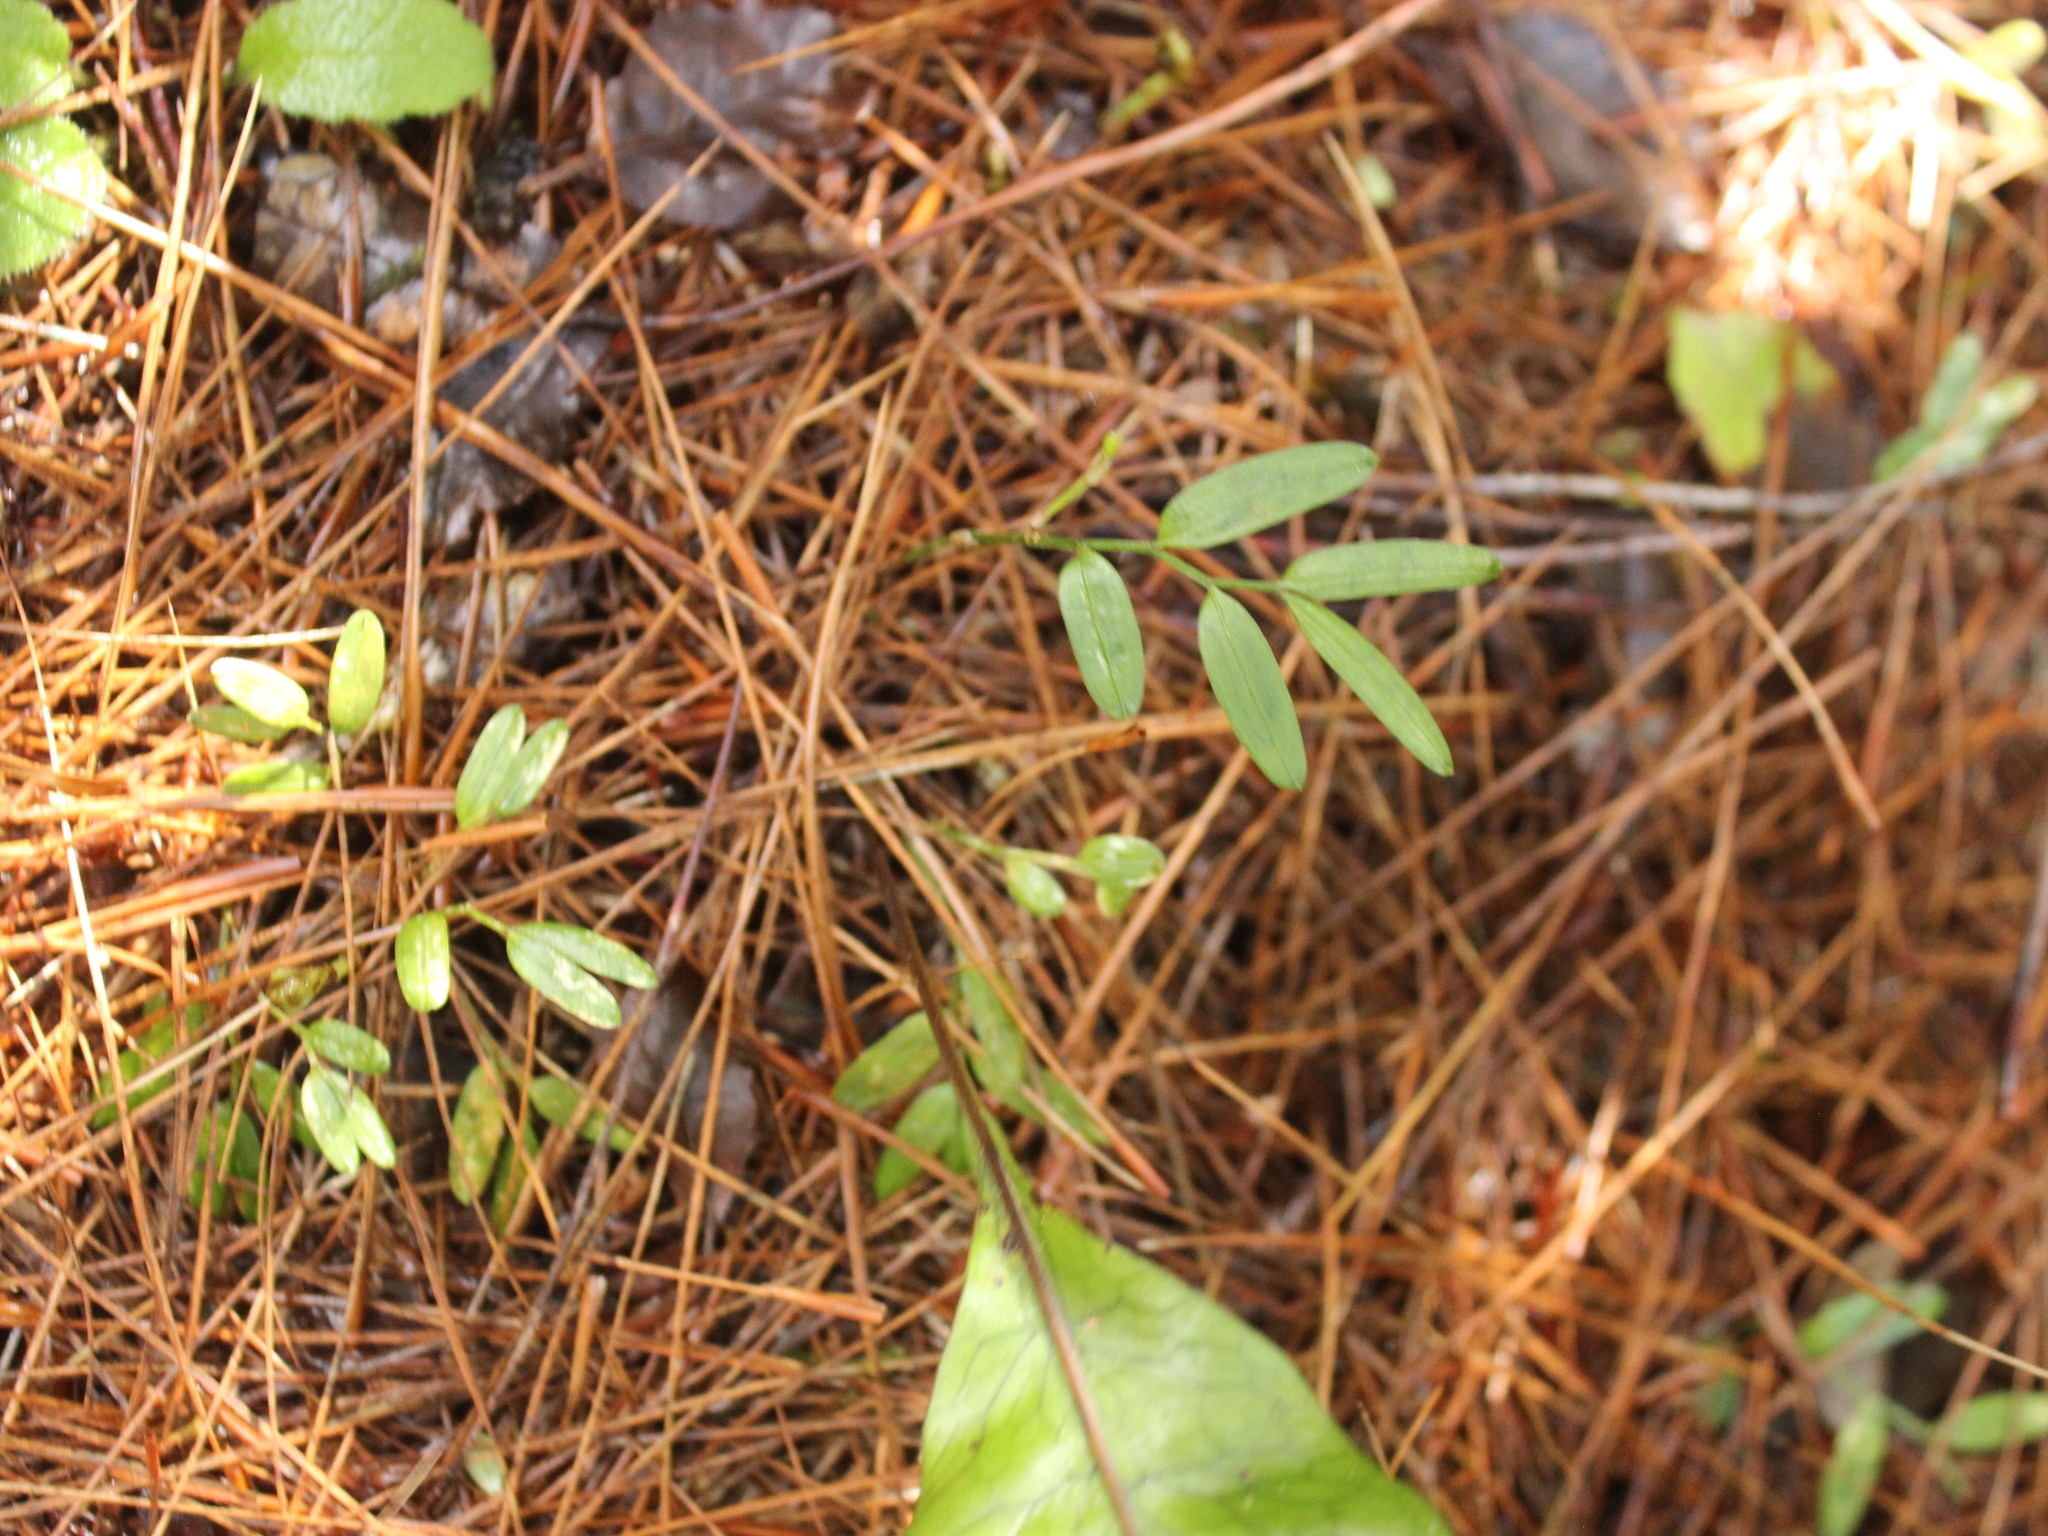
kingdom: Plantae
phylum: Tracheophyta
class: Liliopsida
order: Liliales
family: Alstroemeriaceae
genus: Luzuriaga
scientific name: Luzuriaga parviflora
